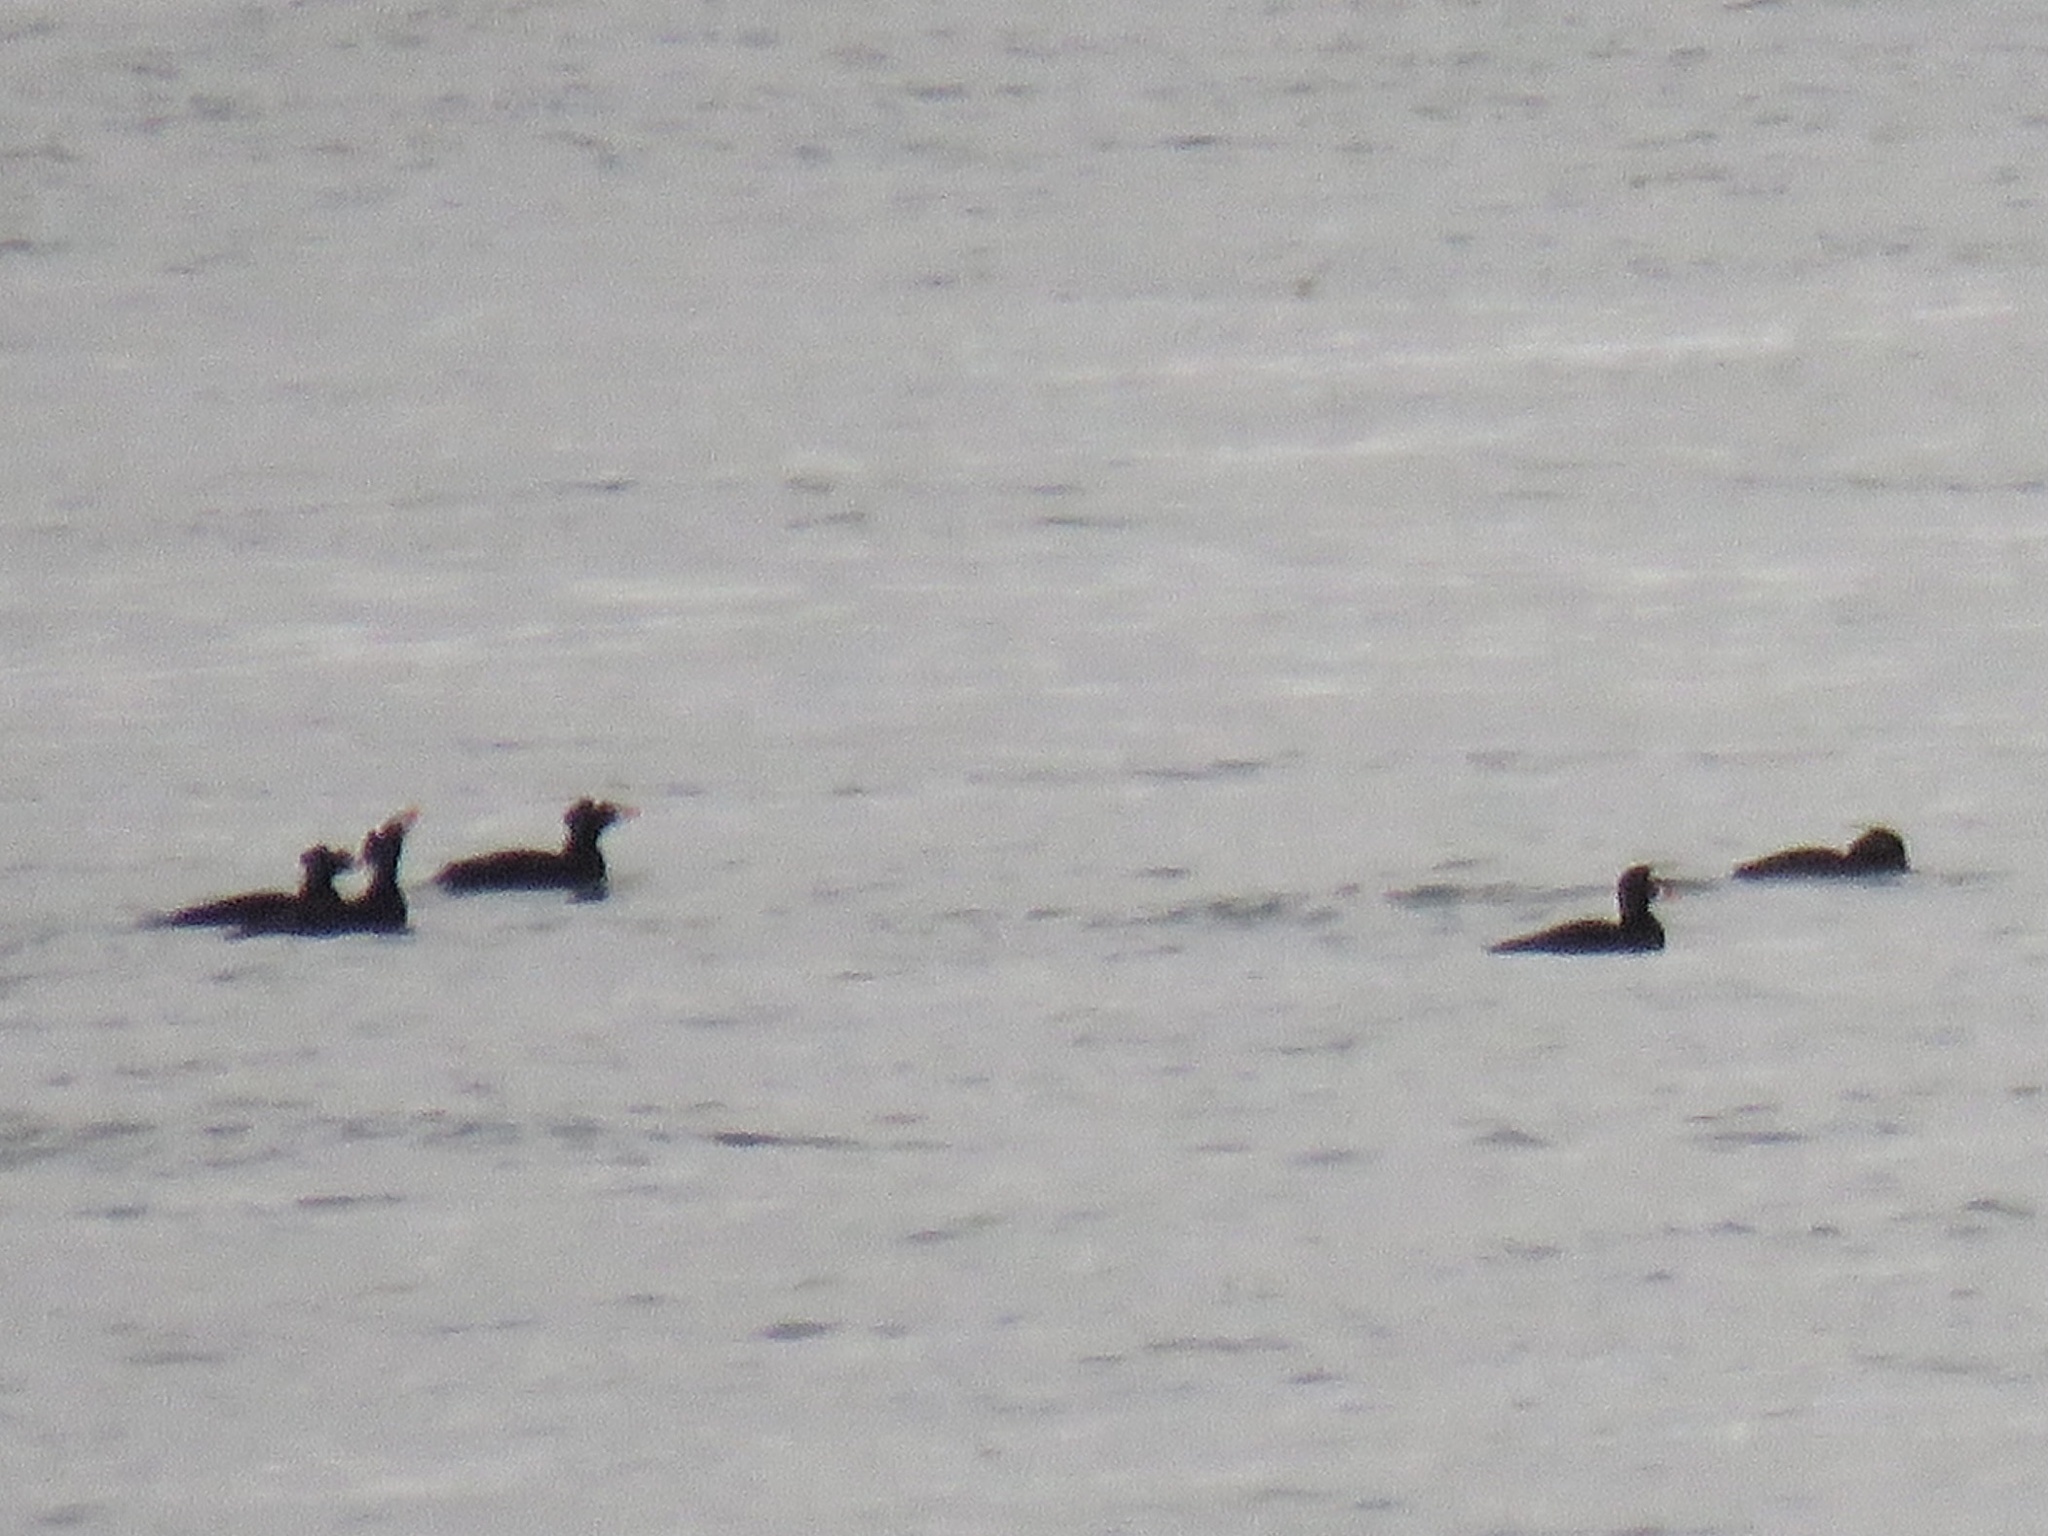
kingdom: Animalia
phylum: Chordata
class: Aves
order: Anseriformes
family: Anatidae
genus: Melanitta
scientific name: Melanitta perspicillata
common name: Surf scoter
